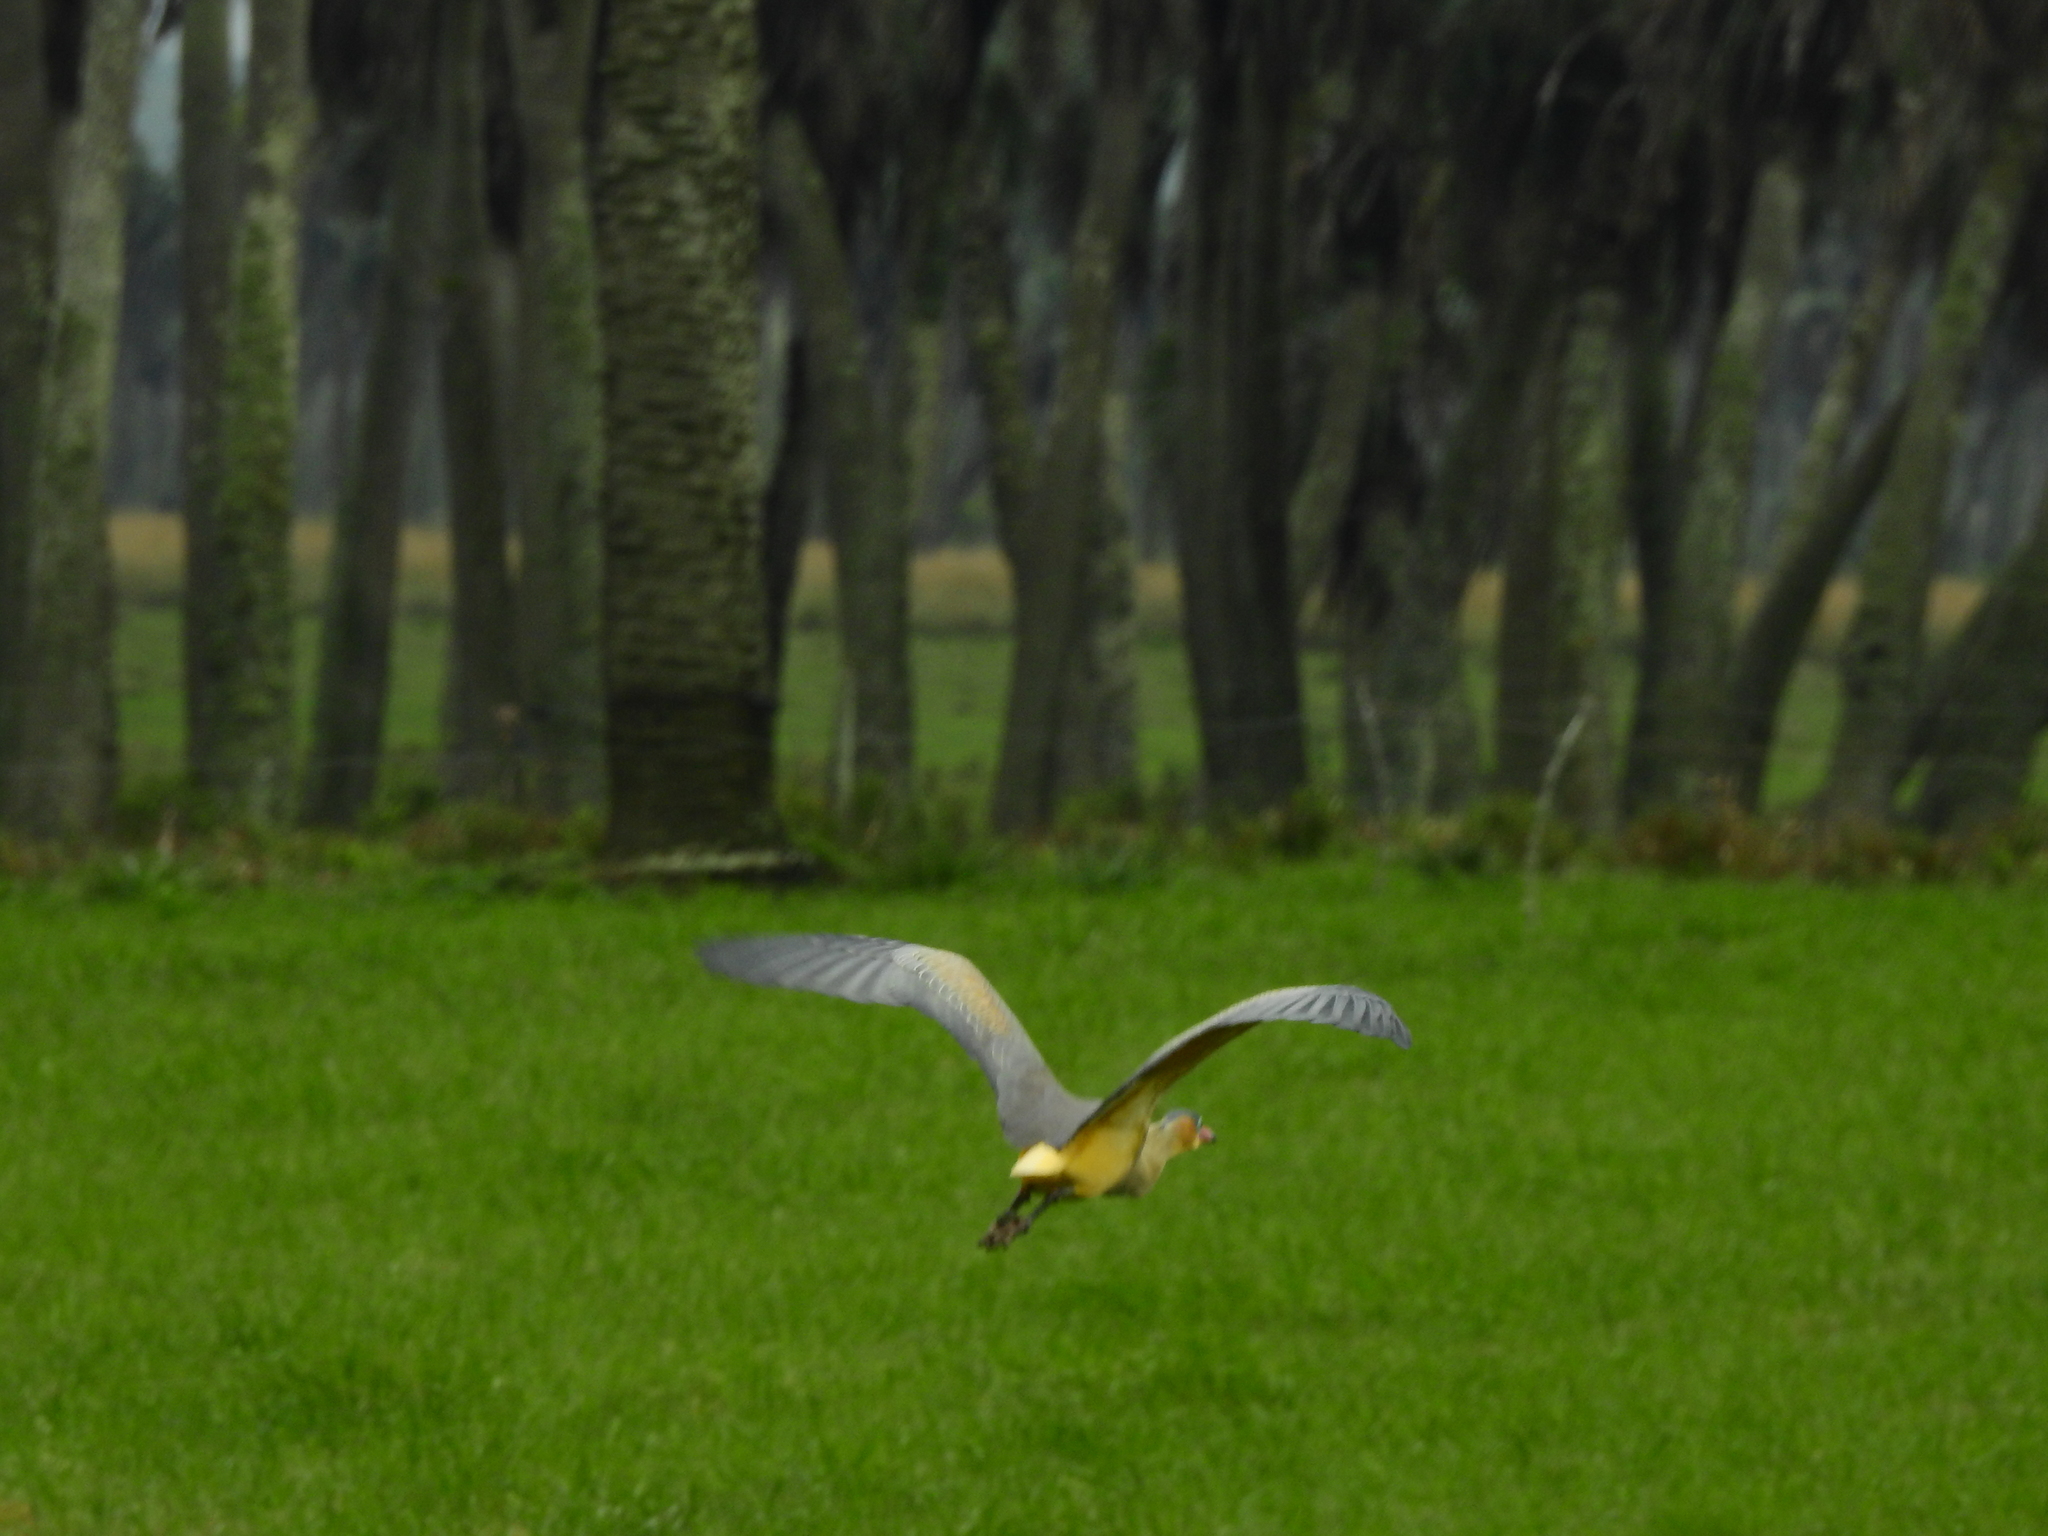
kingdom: Animalia
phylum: Chordata
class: Aves
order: Pelecaniformes
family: Ardeidae
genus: Syrigma
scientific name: Syrigma sibilatrix
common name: Whistling heron
